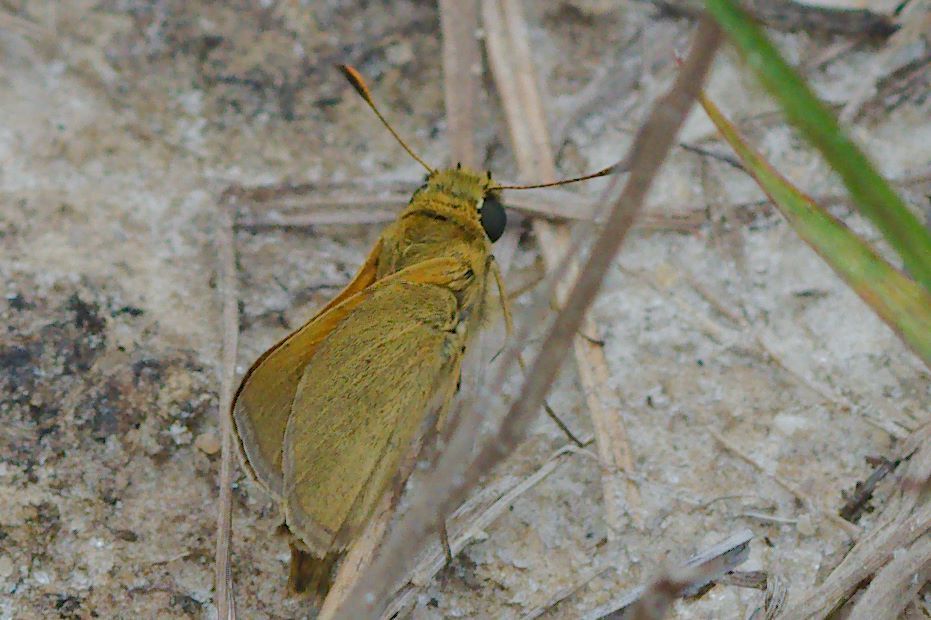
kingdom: Animalia
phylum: Arthropoda
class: Insecta
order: Lepidoptera
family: Hesperiidae
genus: Polites
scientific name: Polites themistocles
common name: Tawny-edged skipper
